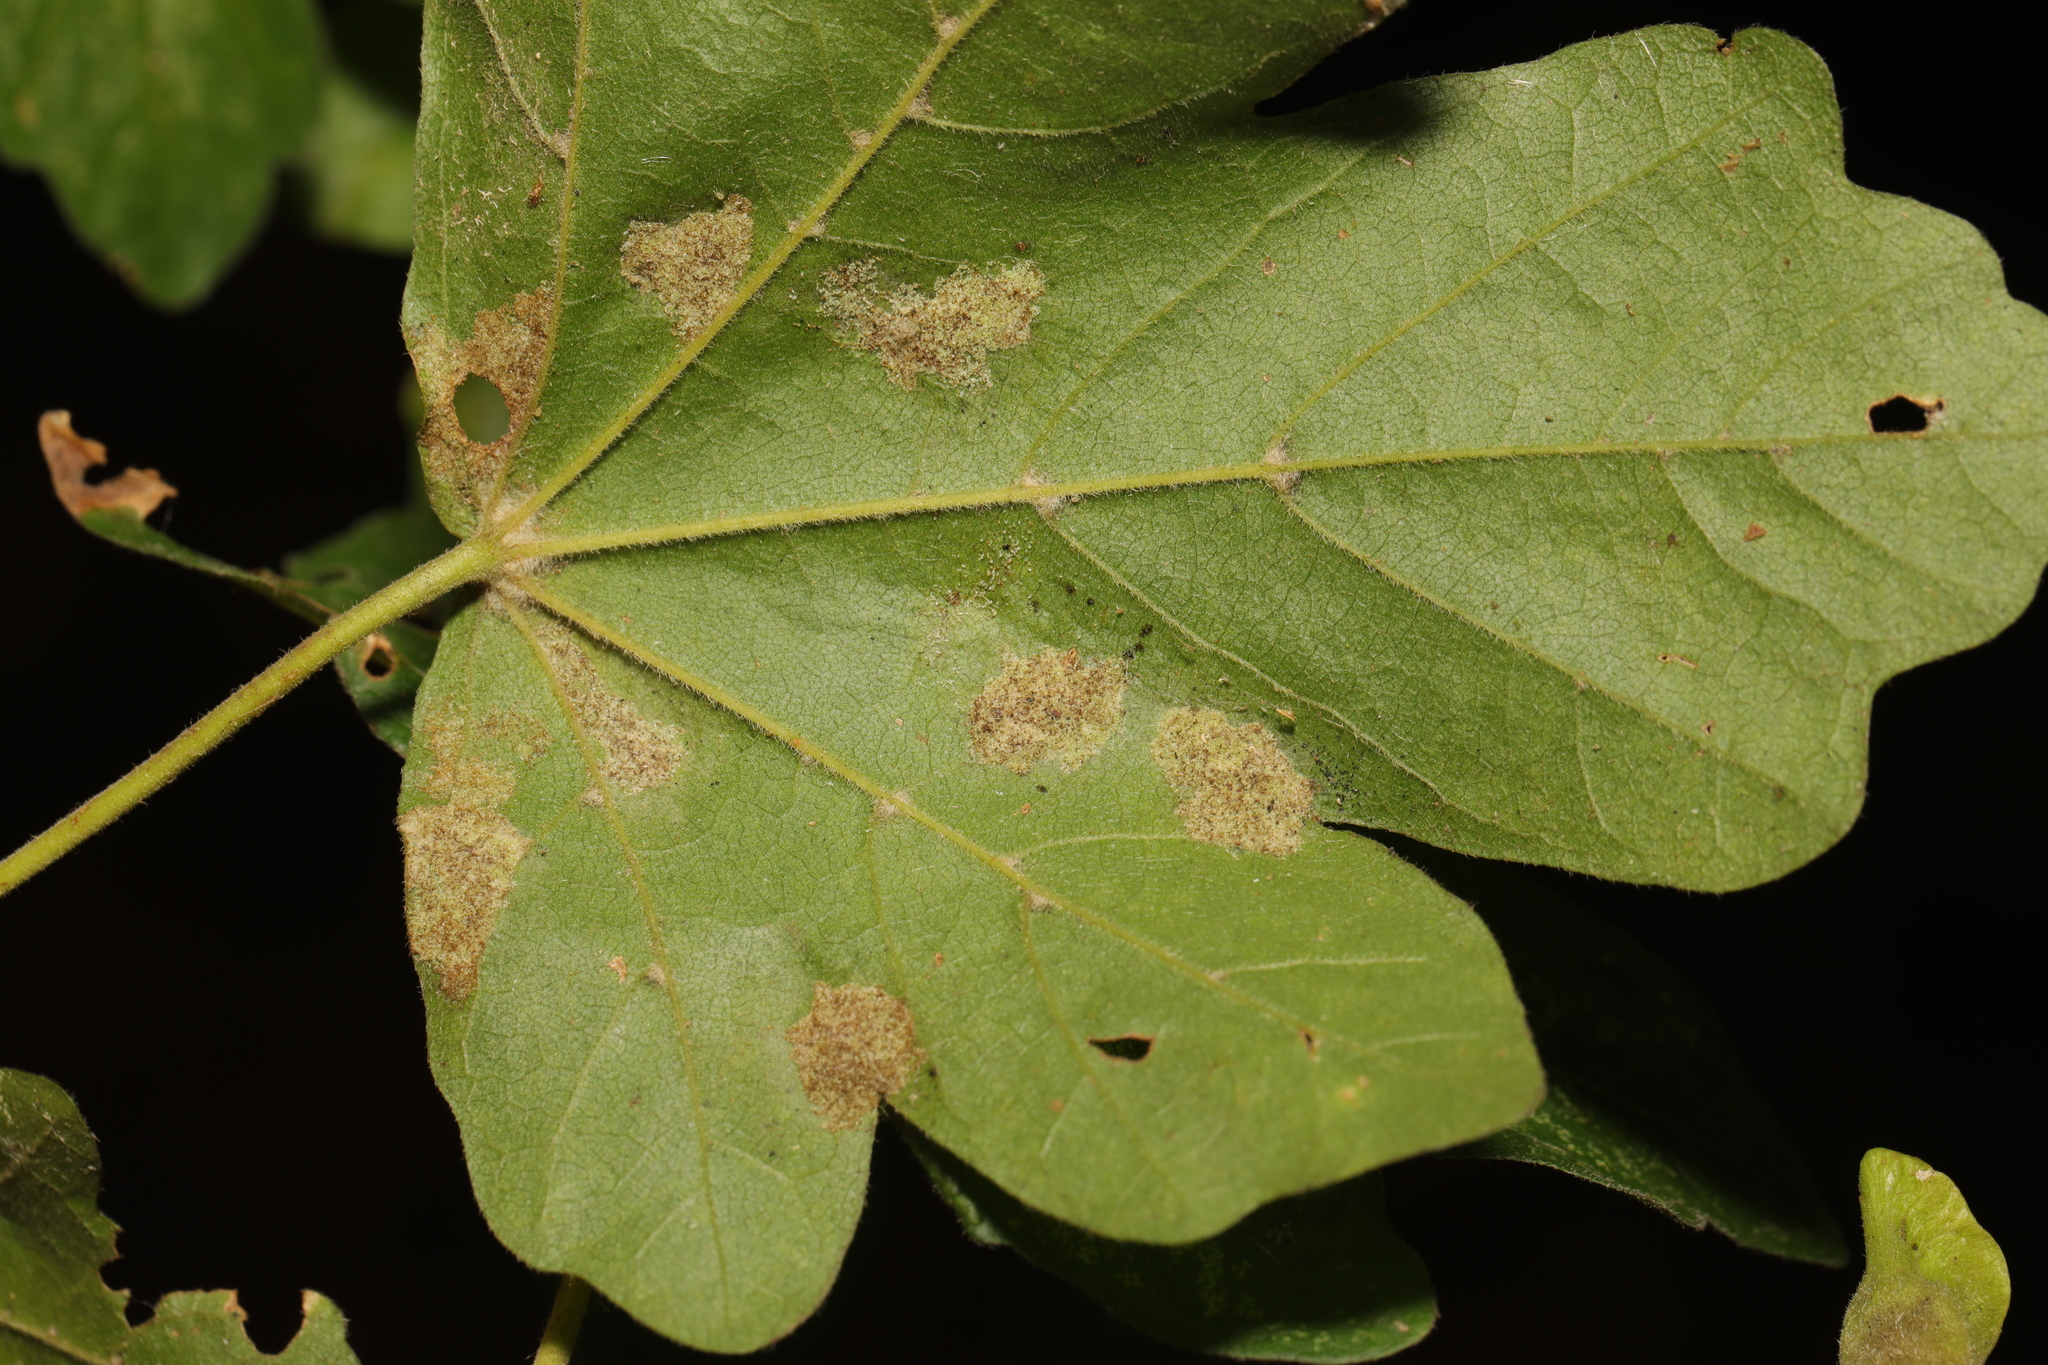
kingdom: Animalia
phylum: Arthropoda
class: Arachnida
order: Trombidiformes
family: Eriophyidae
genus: Aceria
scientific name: Aceria macrocheluserinea
